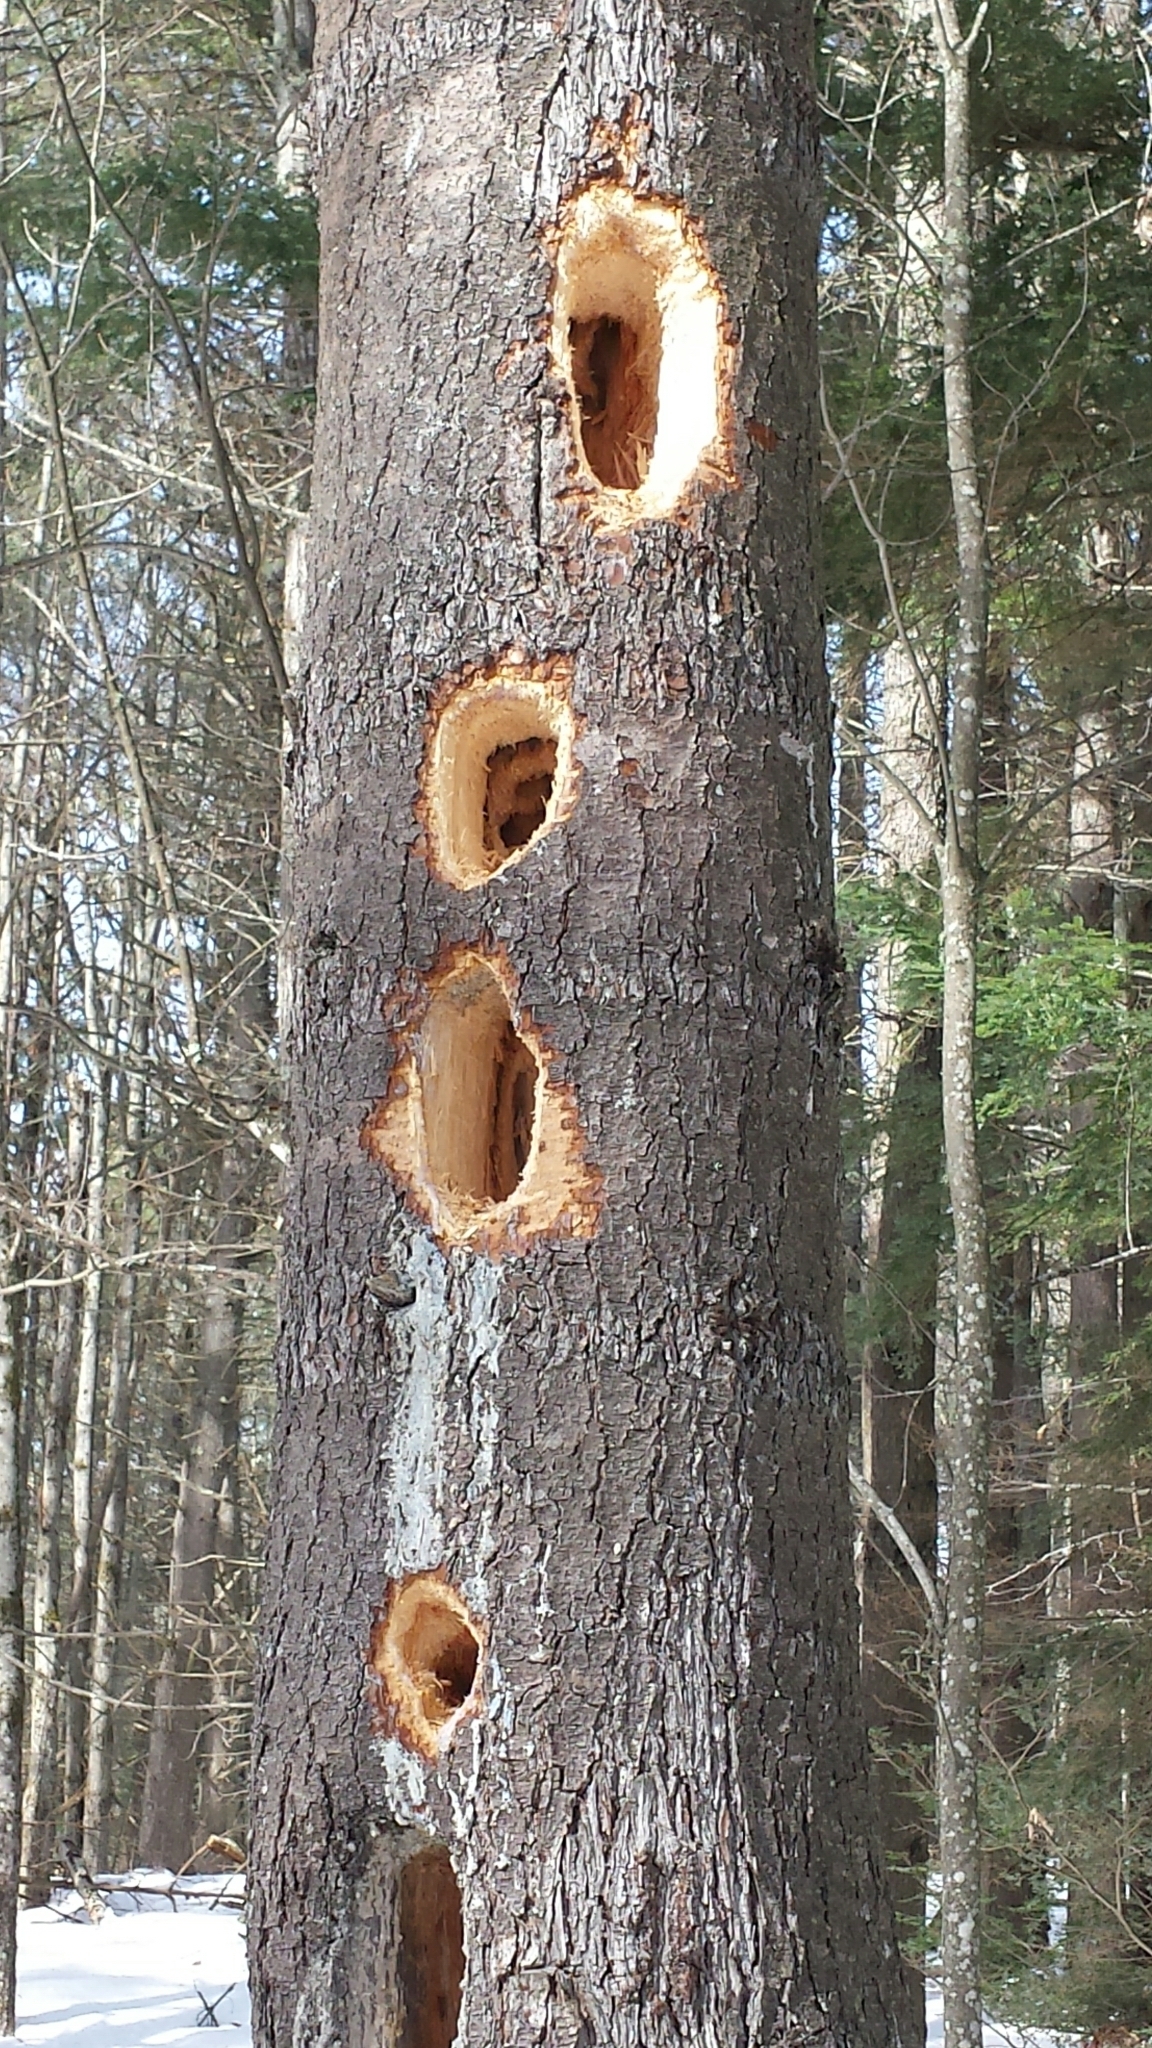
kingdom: Animalia
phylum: Chordata
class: Aves
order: Piciformes
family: Picidae
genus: Dryocopus
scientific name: Dryocopus pileatus
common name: Pileated woodpecker
